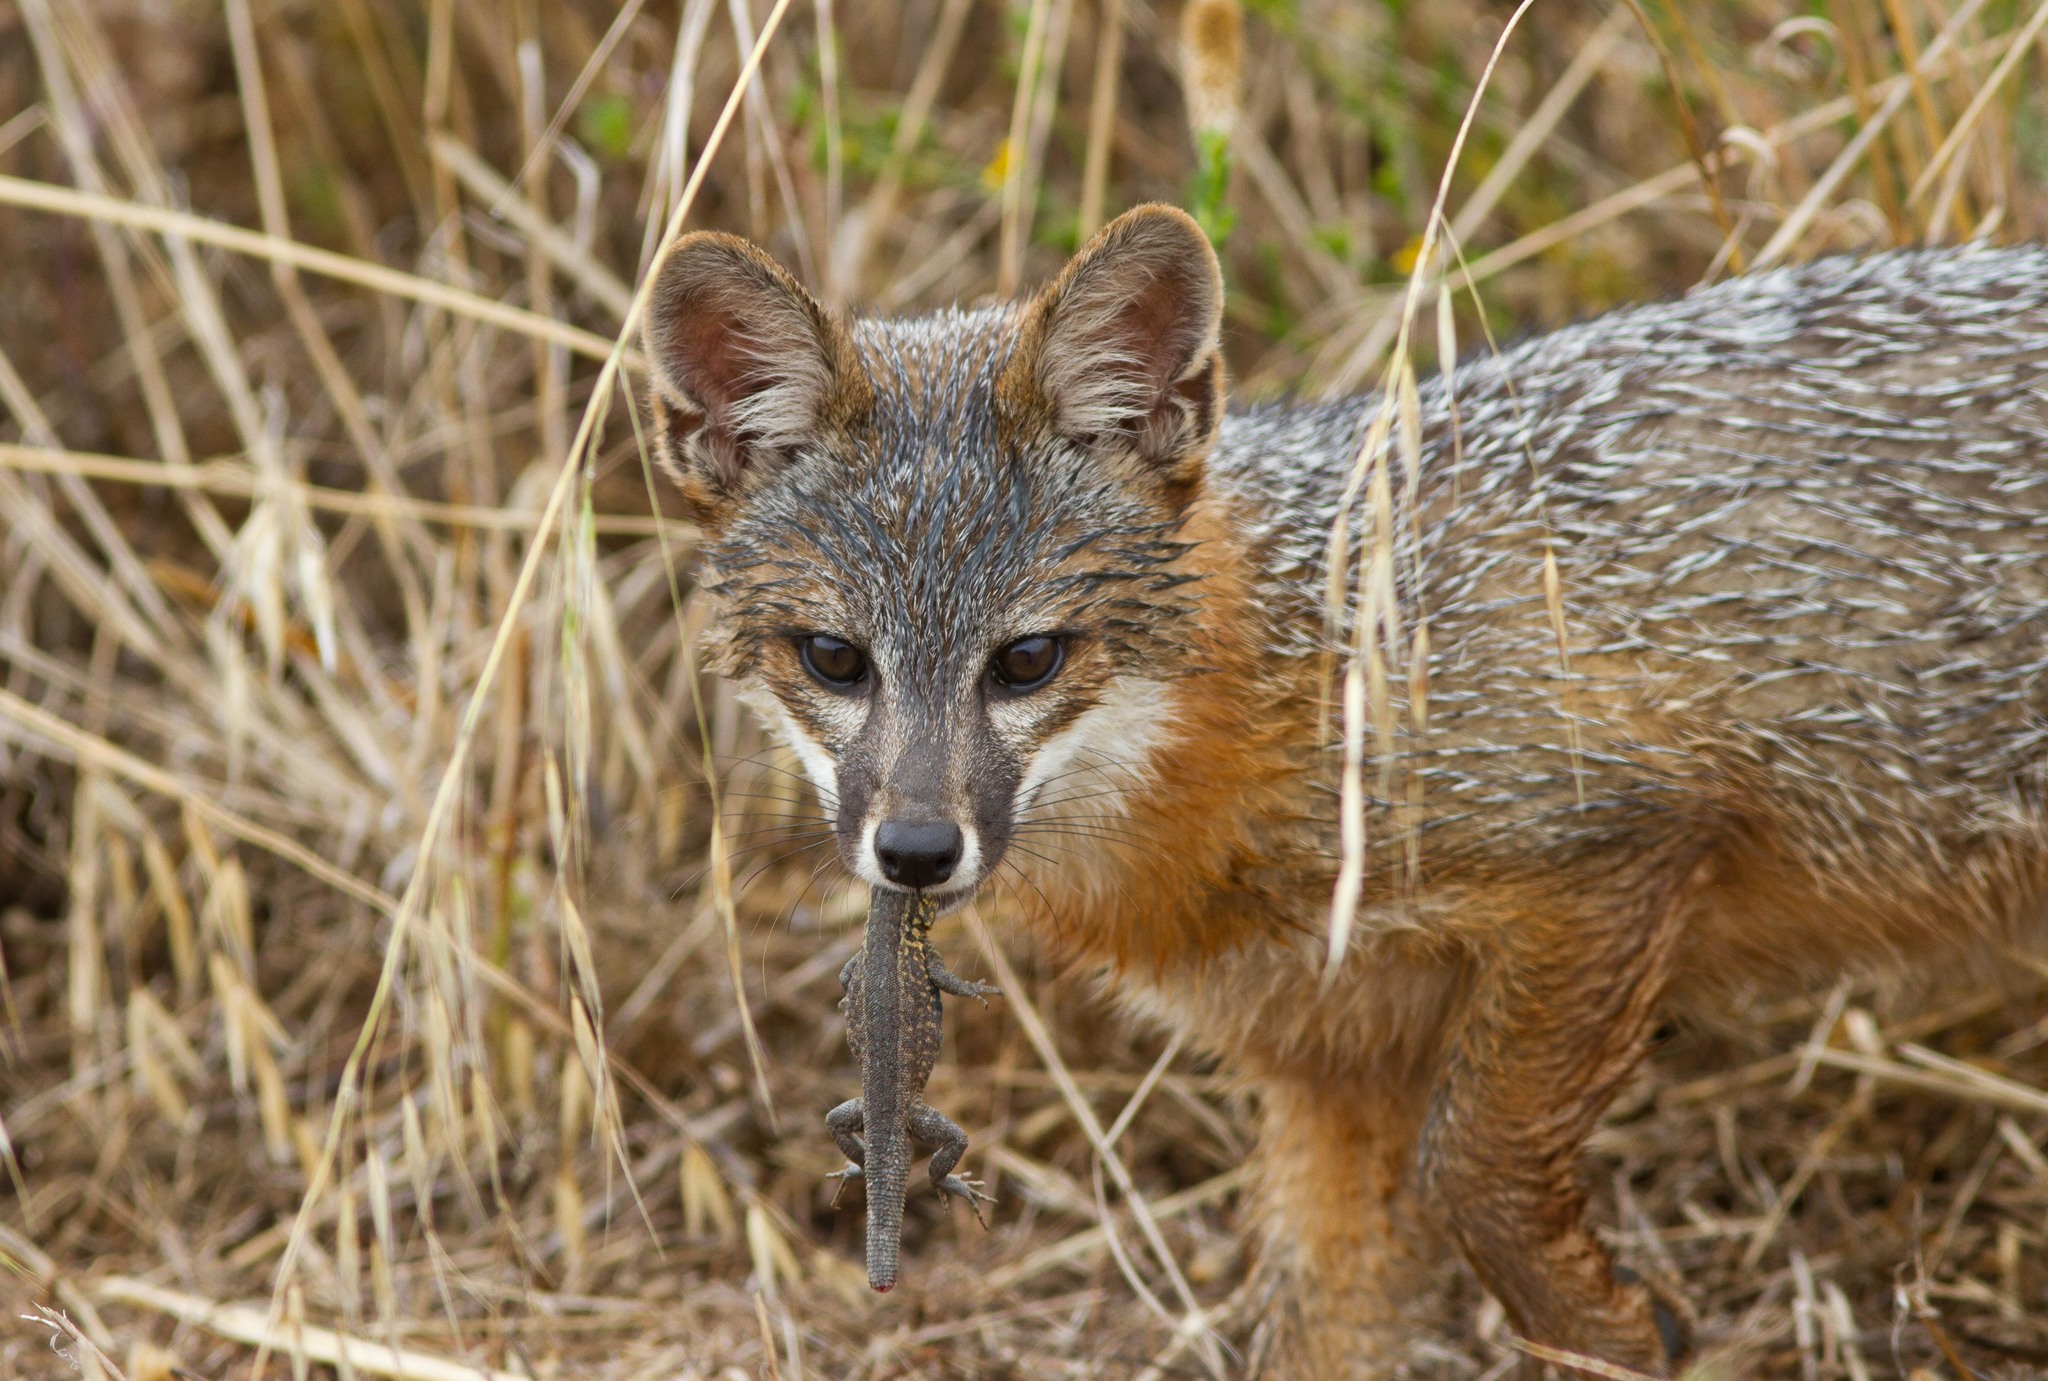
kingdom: Animalia
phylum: Chordata
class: Mammalia
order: Carnivora
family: Canidae
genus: Urocyon
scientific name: Urocyon littoralis
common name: Island gray fox
